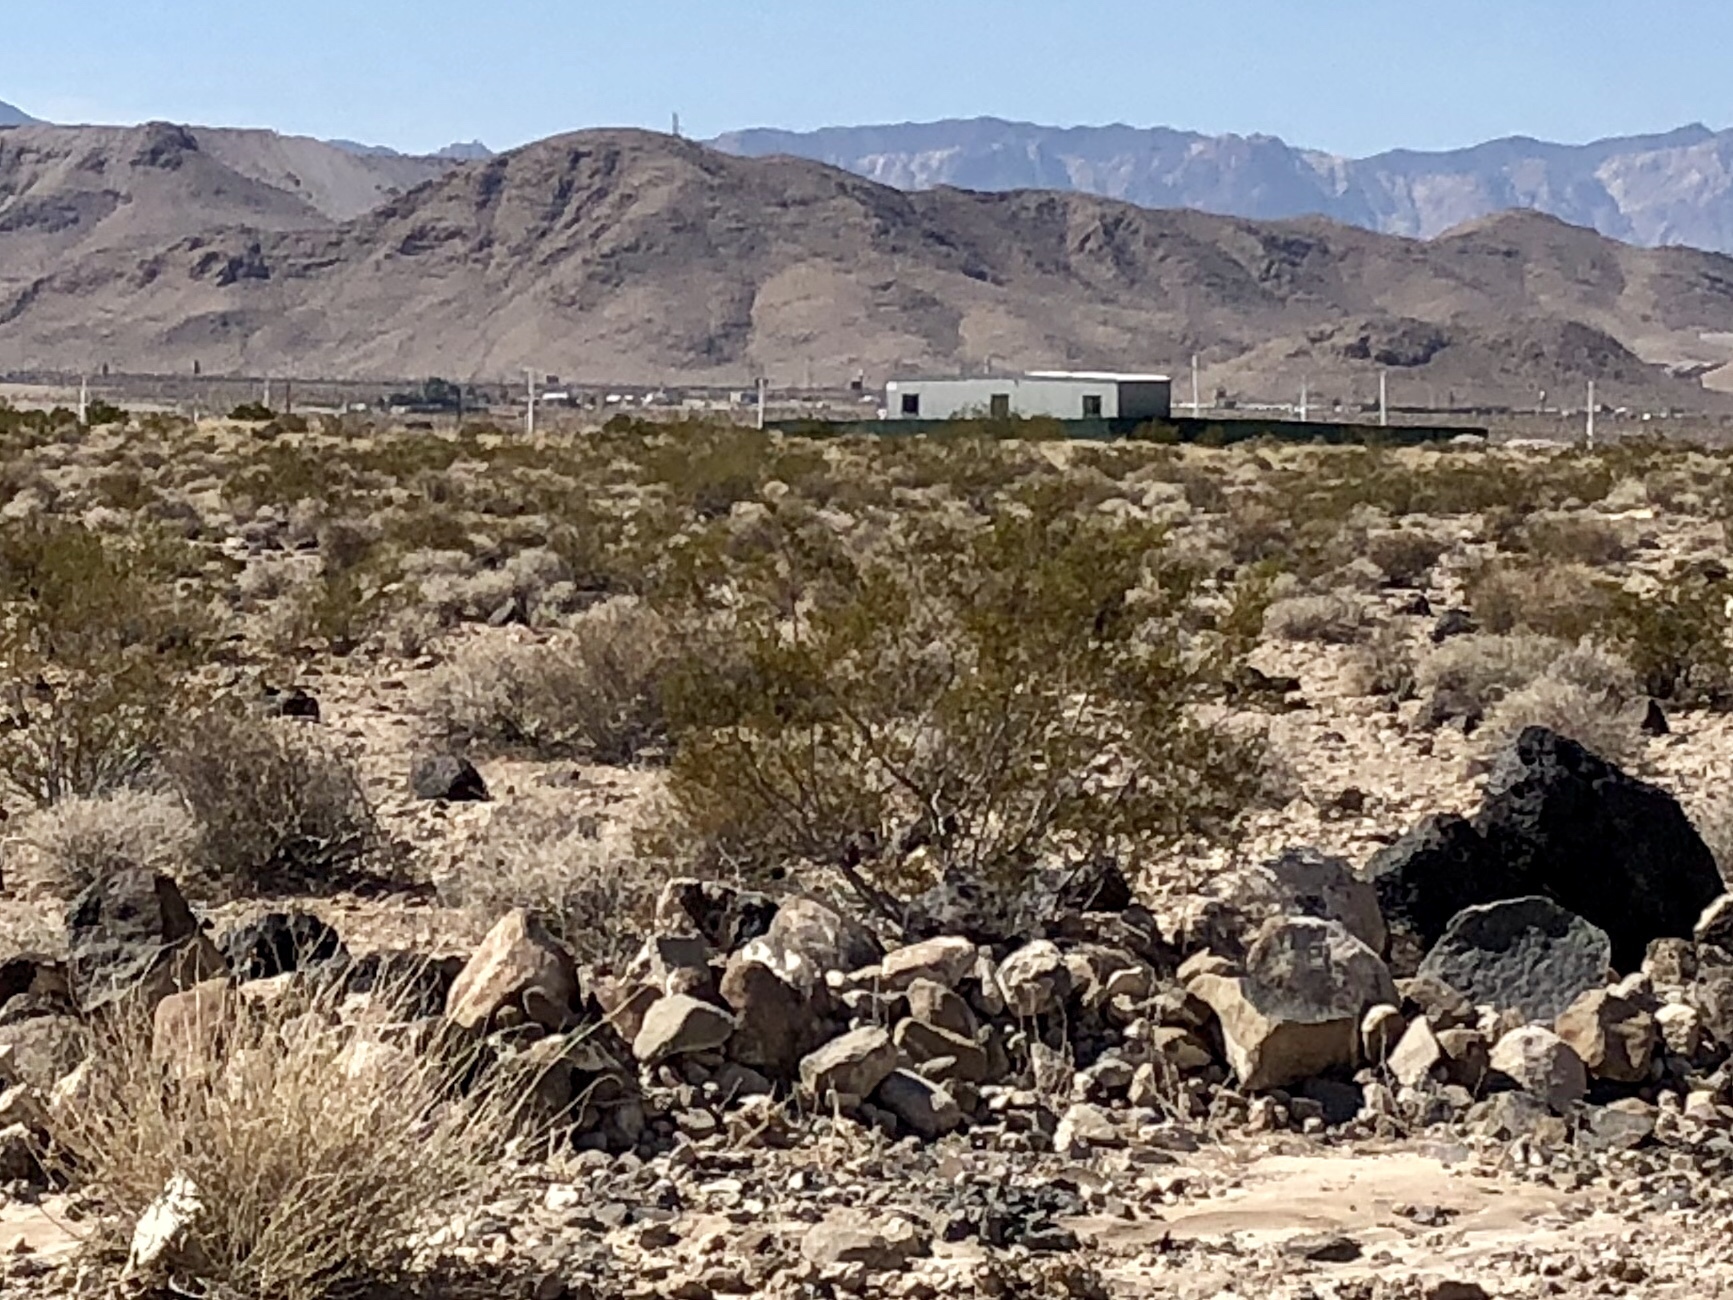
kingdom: Plantae
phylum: Tracheophyta
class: Magnoliopsida
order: Zygophyllales
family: Zygophyllaceae
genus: Larrea
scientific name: Larrea tridentata
